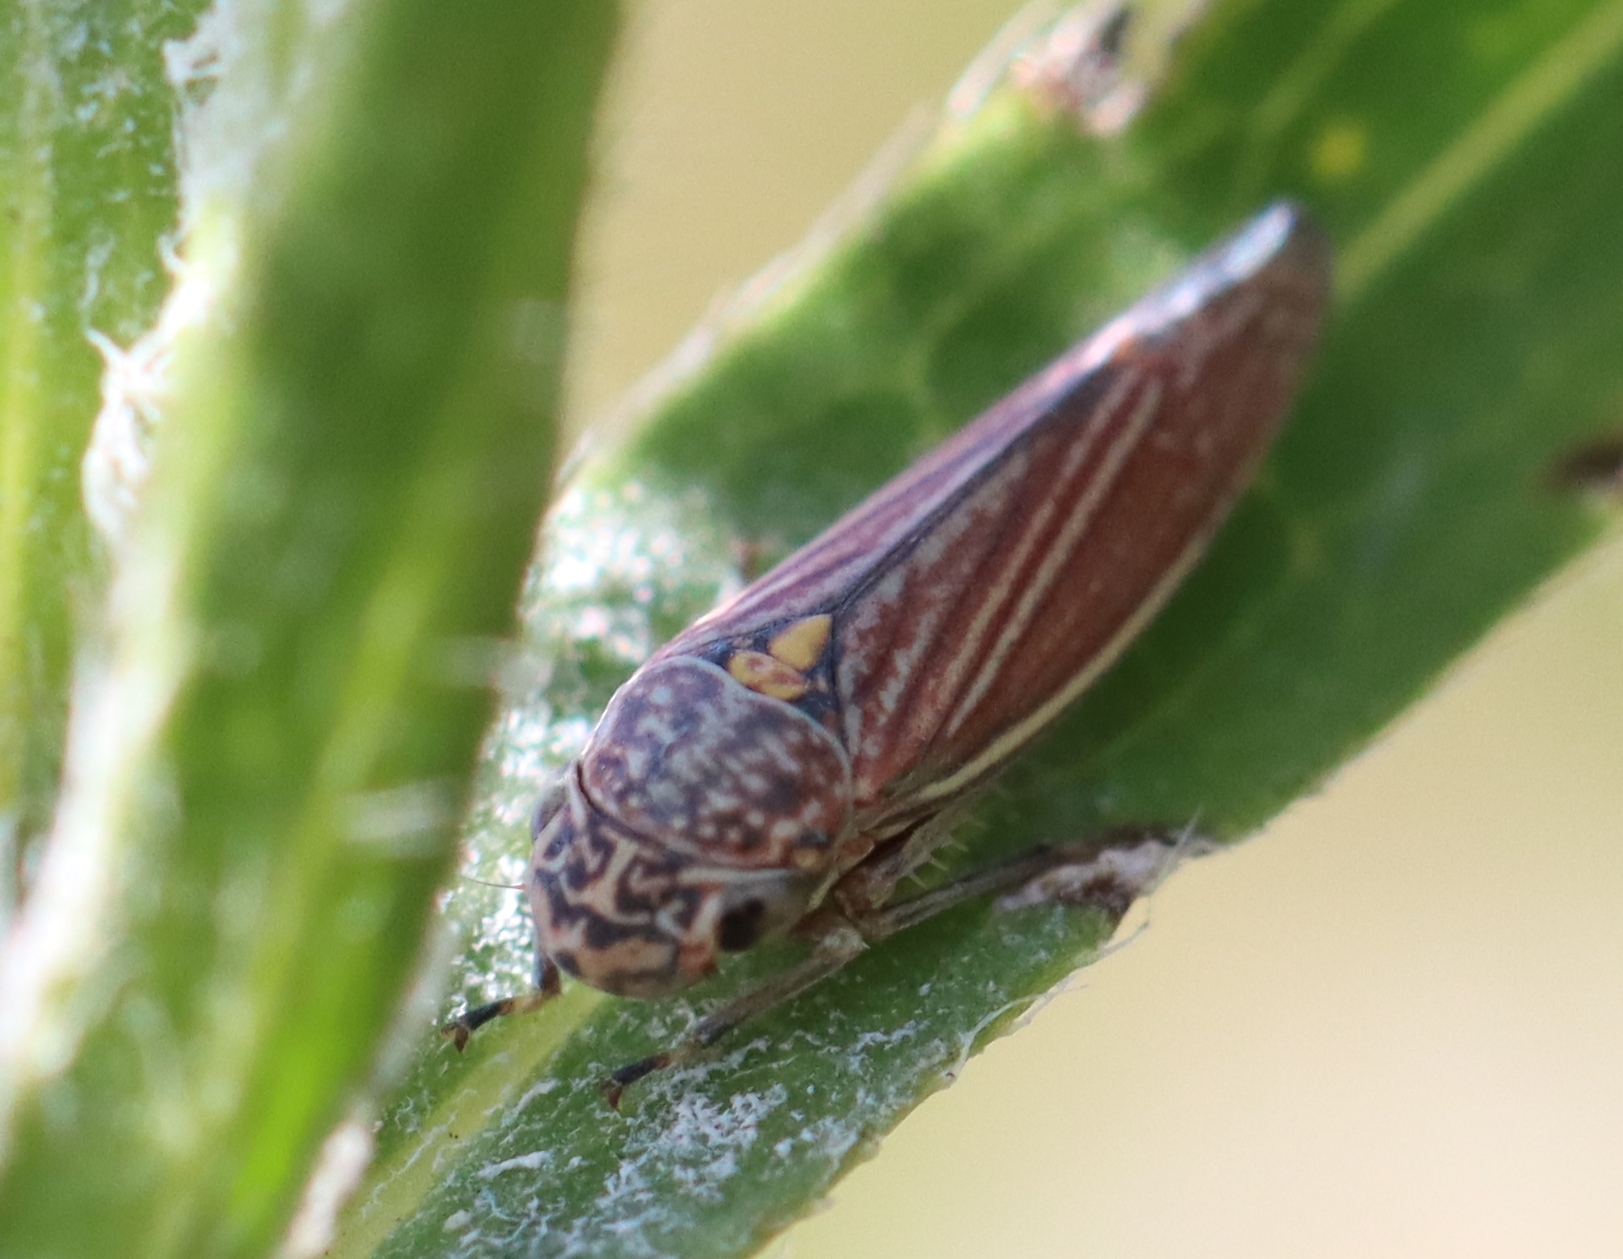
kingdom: Animalia
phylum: Arthropoda
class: Insecta
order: Hemiptera
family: Cicadellidae
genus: Neokolla
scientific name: Neokolla hieroglyphica
